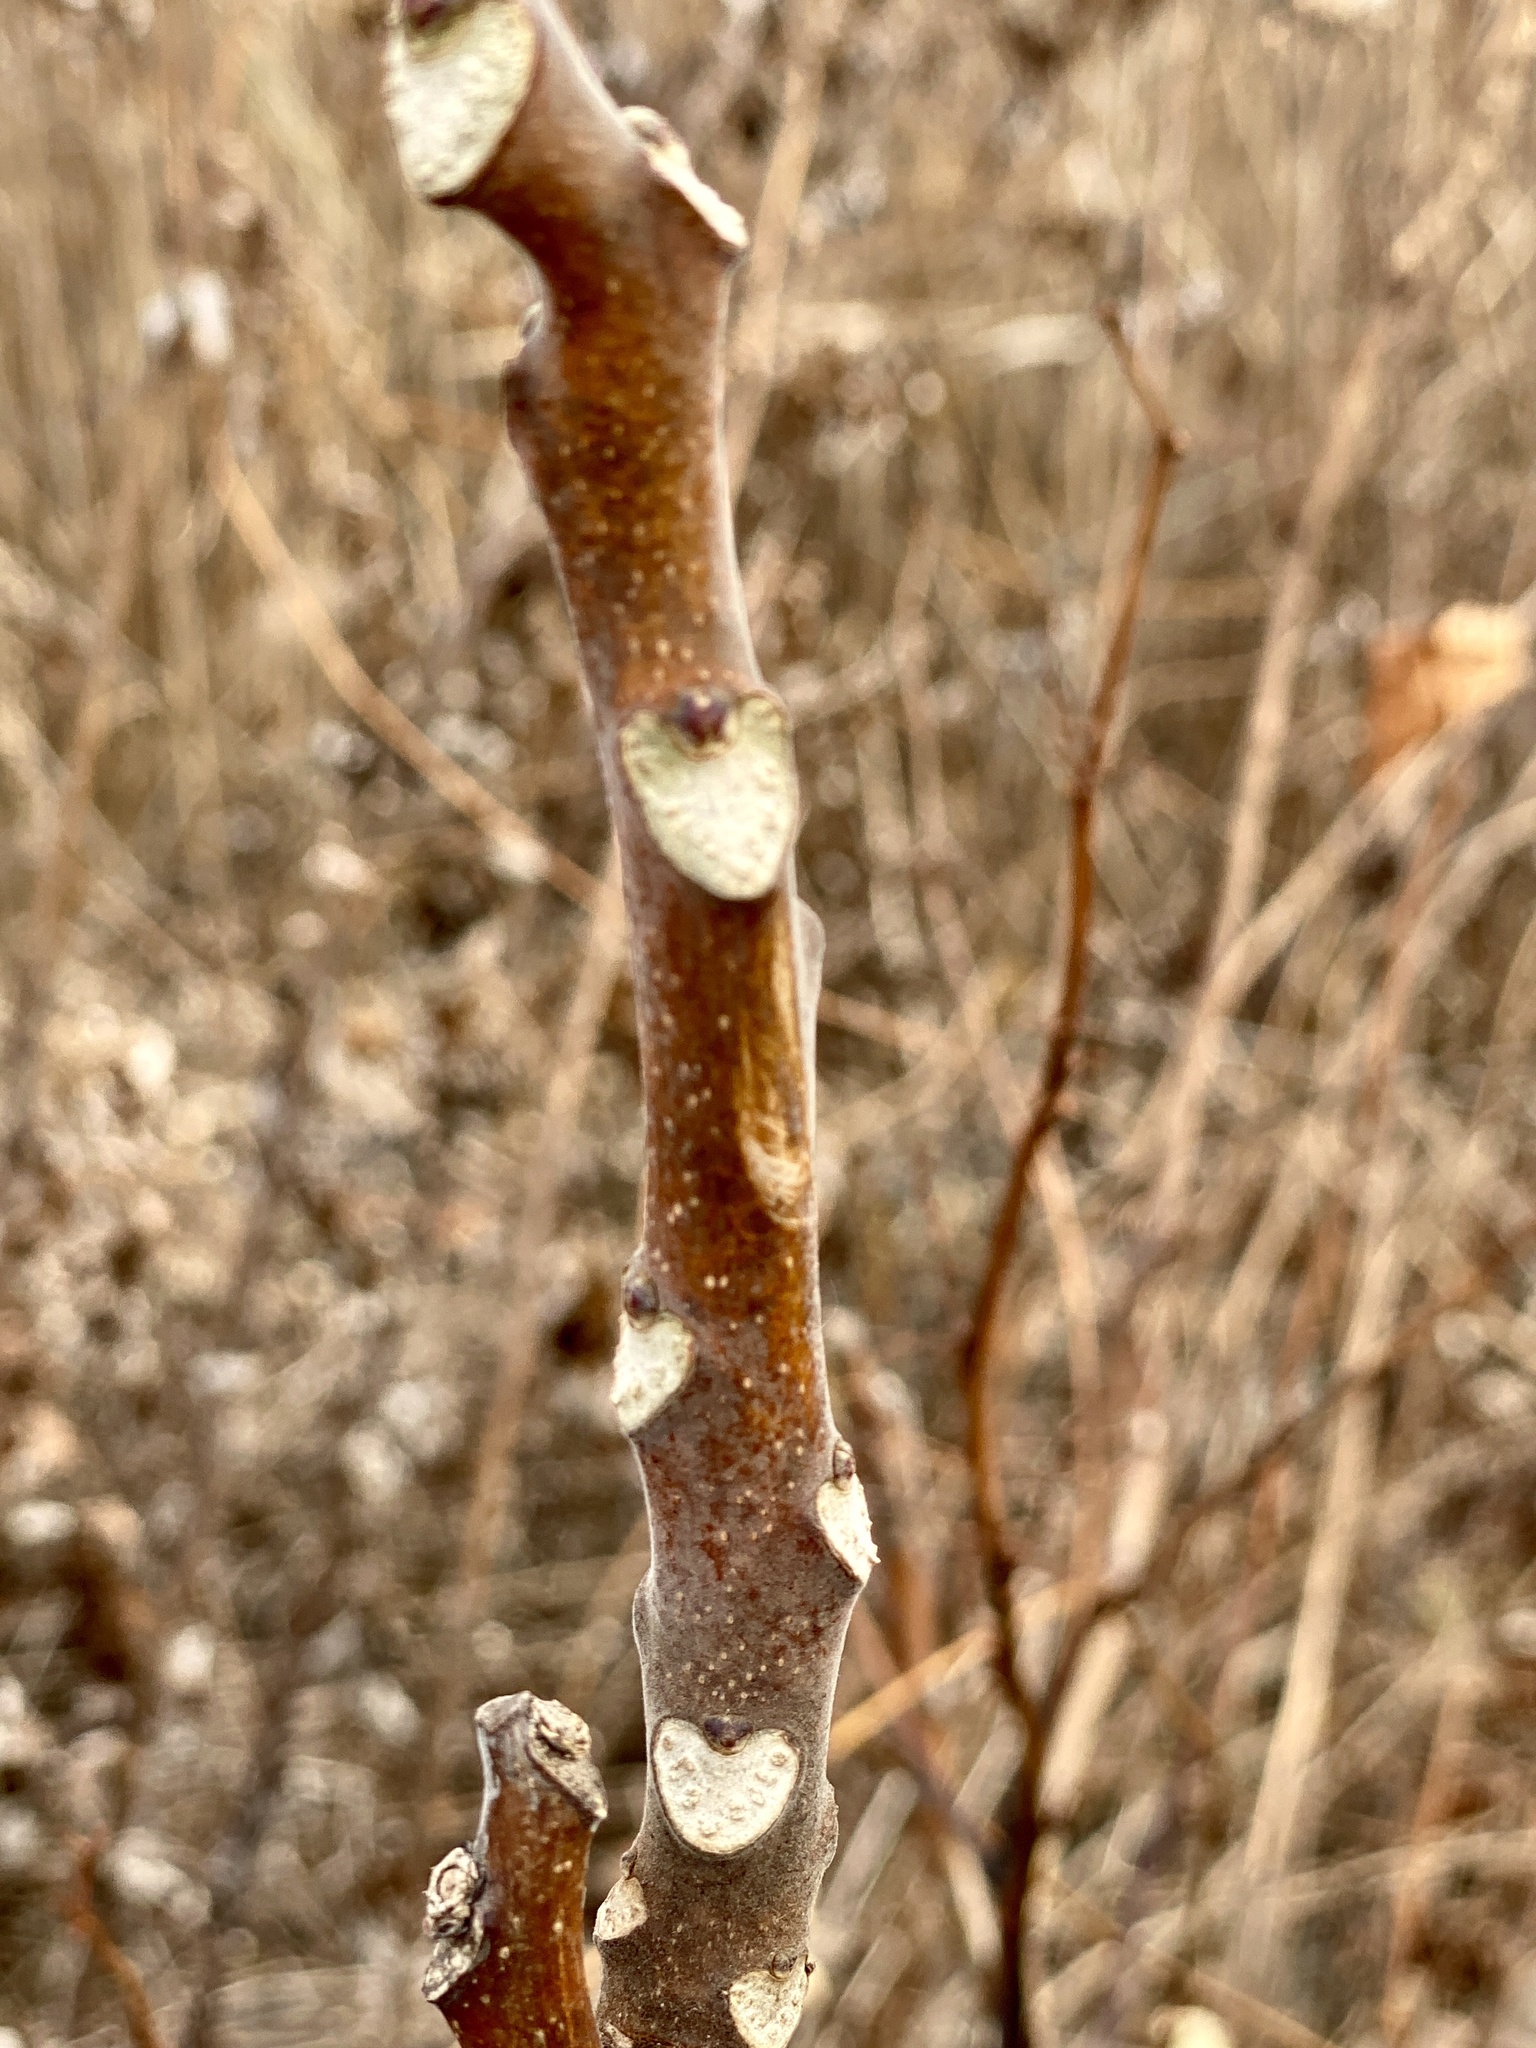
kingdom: Plantae
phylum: Tracheophyta
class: Magnoliopsida
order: Sapindales
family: Simaroubaceae
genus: Ailanthus
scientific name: Ailanthus altissima
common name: Tree-of-heaven
